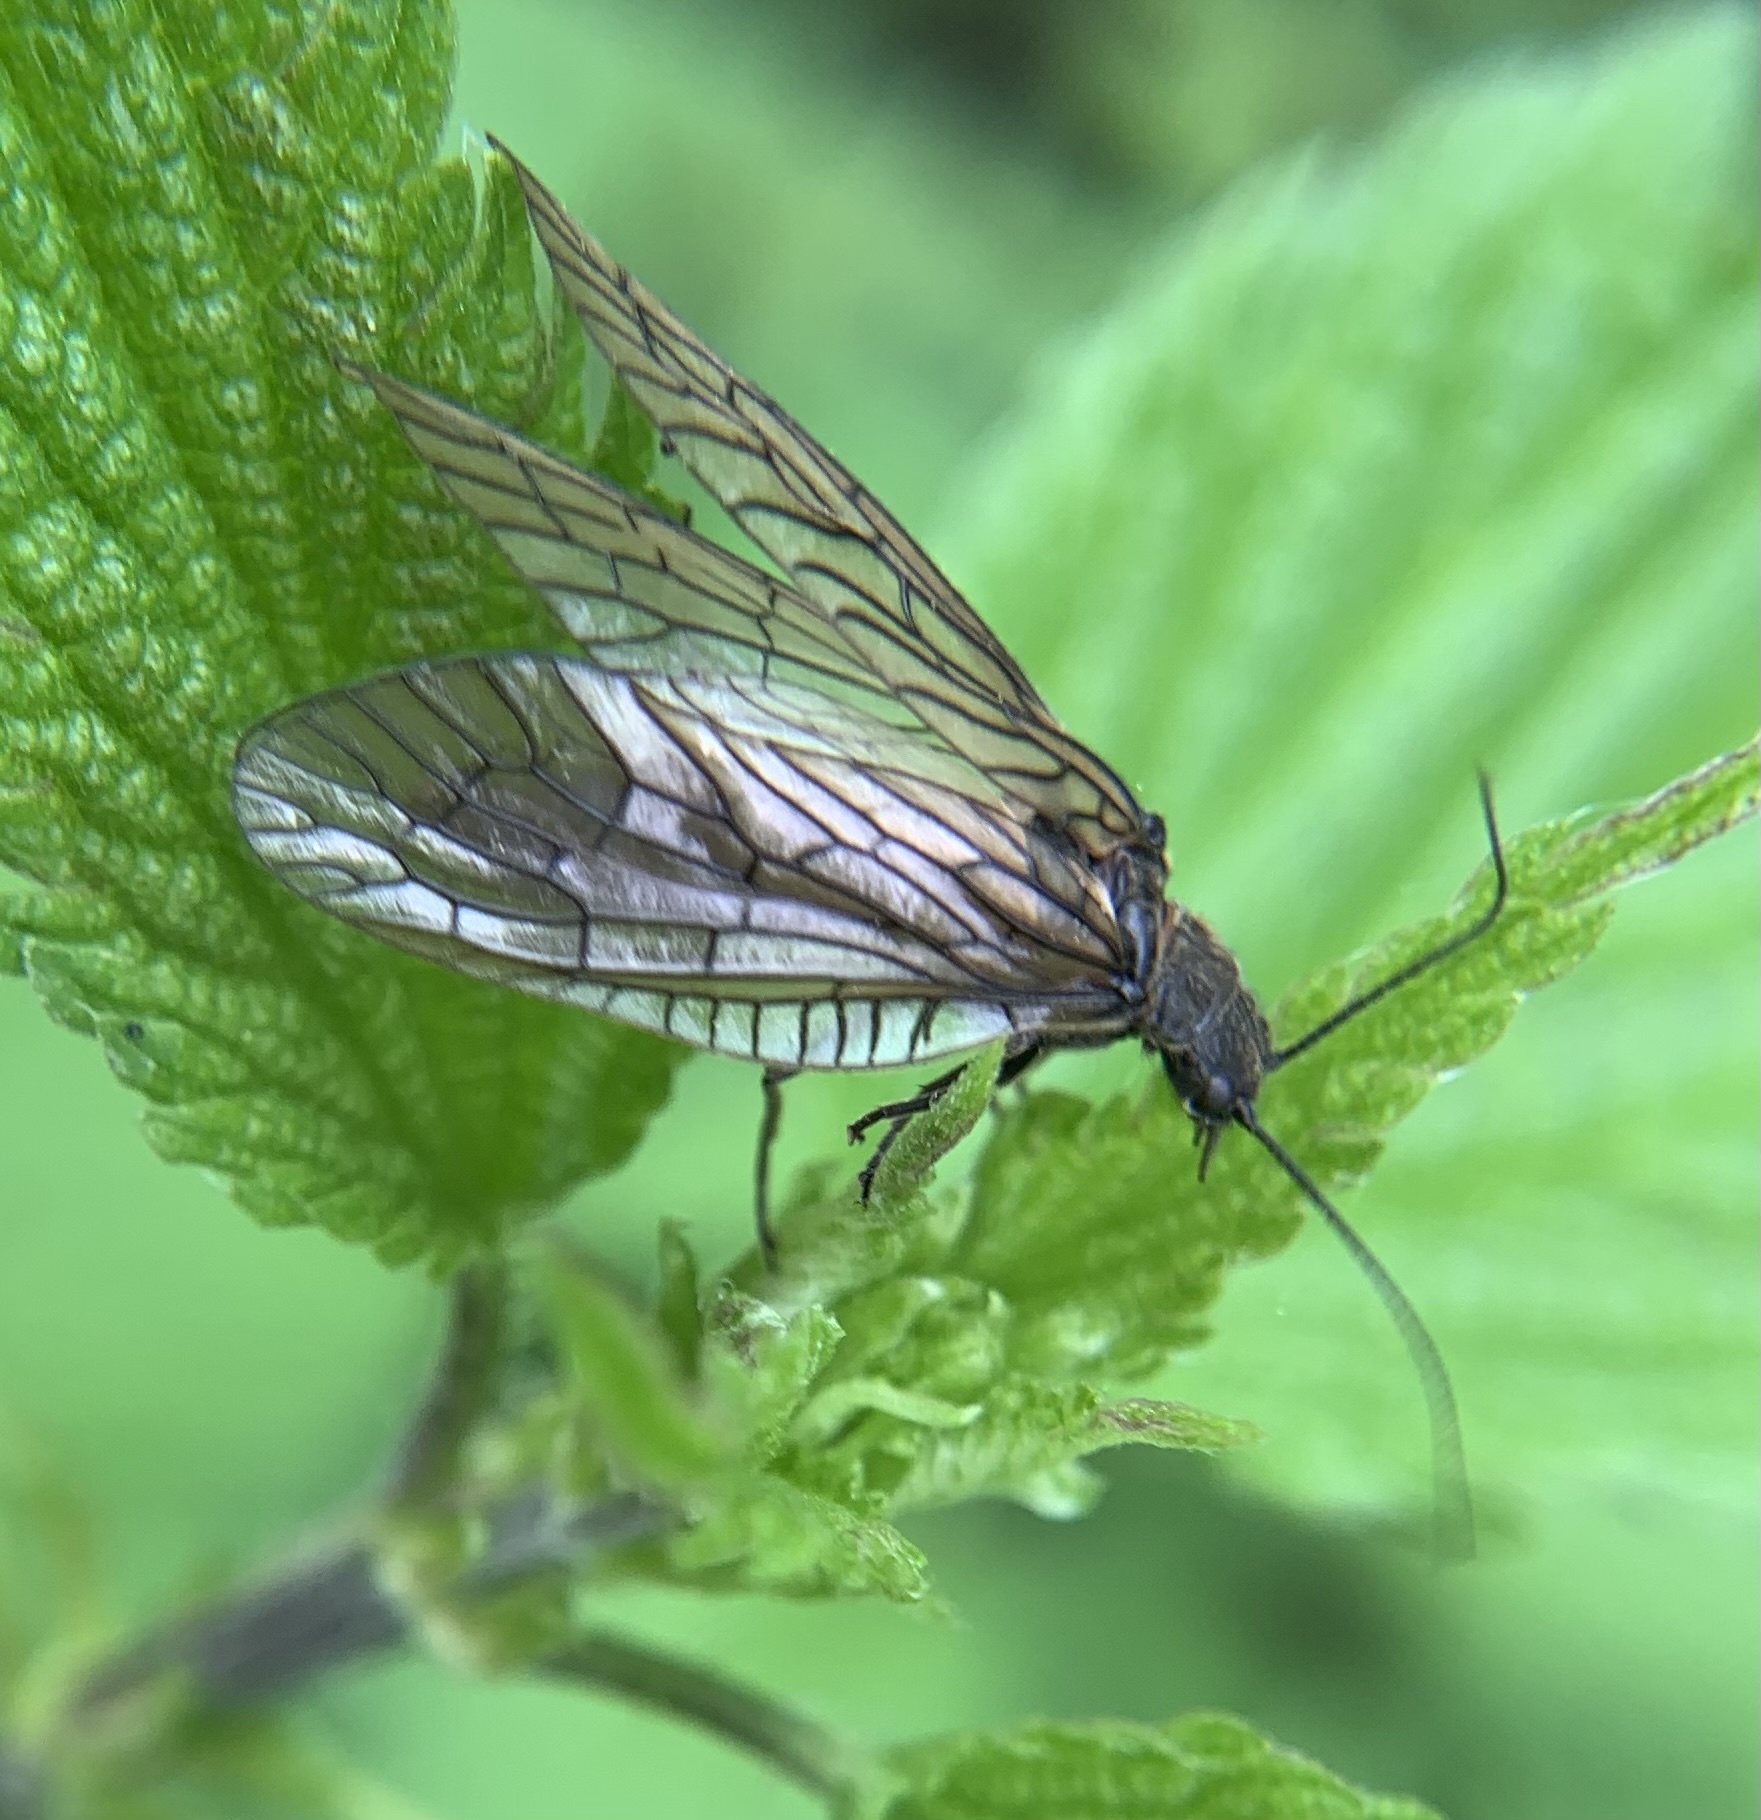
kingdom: Animalia
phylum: Arthropoda
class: Insecta
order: Megaloptera
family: Sialidae
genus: Sialis
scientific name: Sialis
